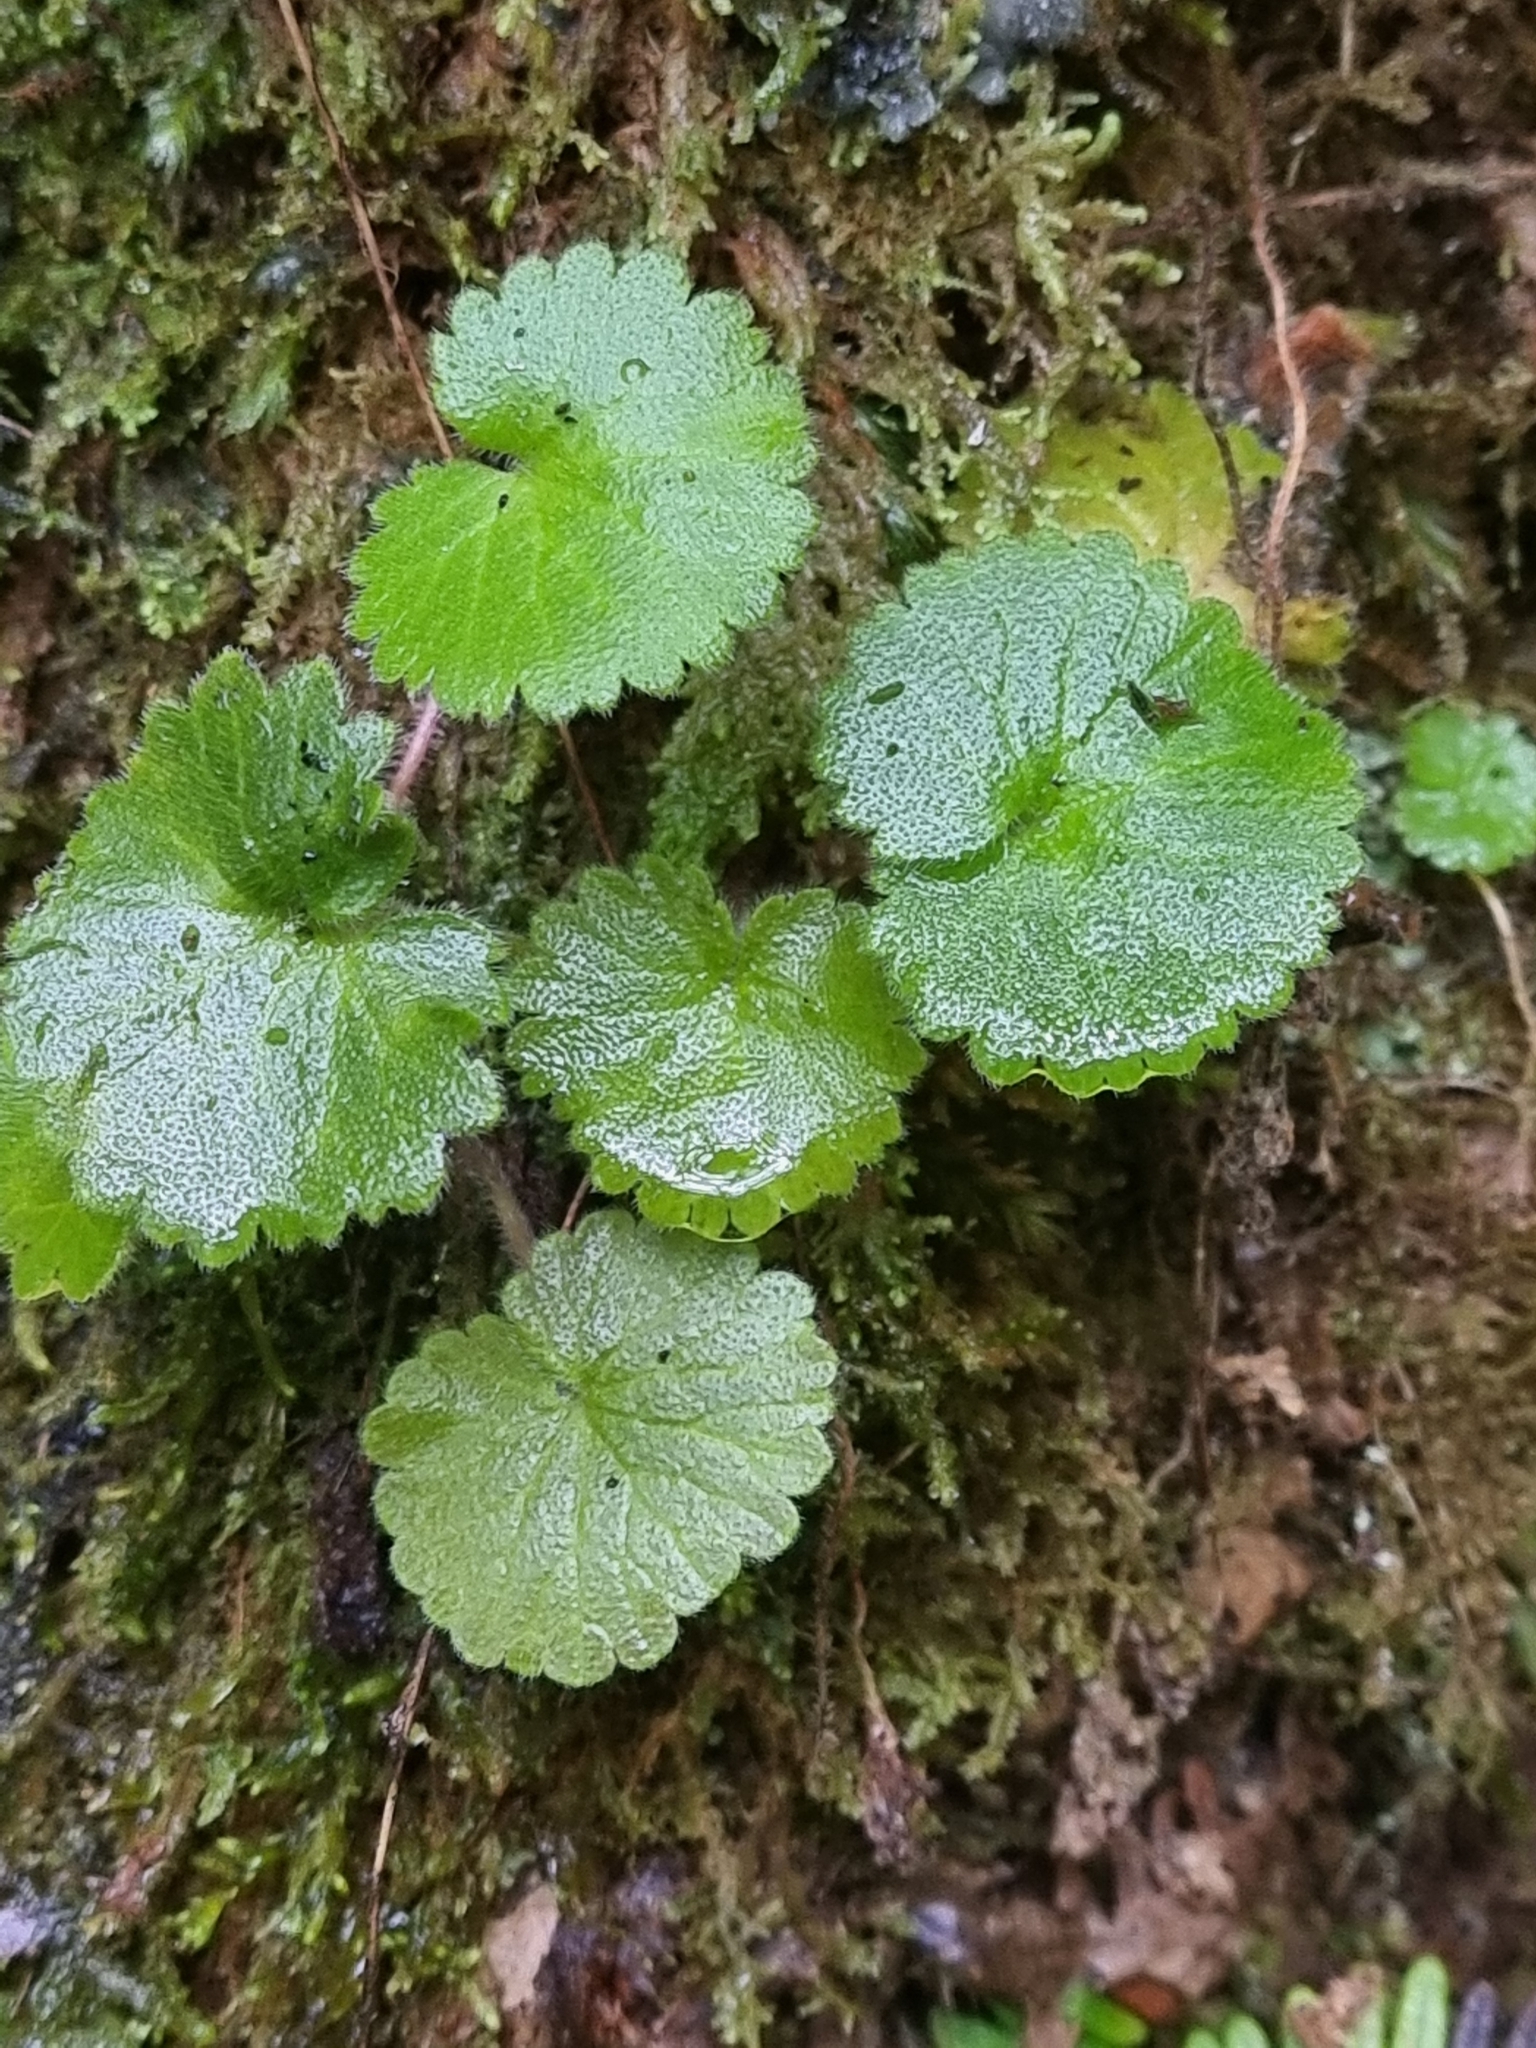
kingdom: Plantae
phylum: Tracheophyta
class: Magnoliopsida
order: Lamiales
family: Plantaginaceae
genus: Sibthorpia
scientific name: Sibthorpia peregrina
